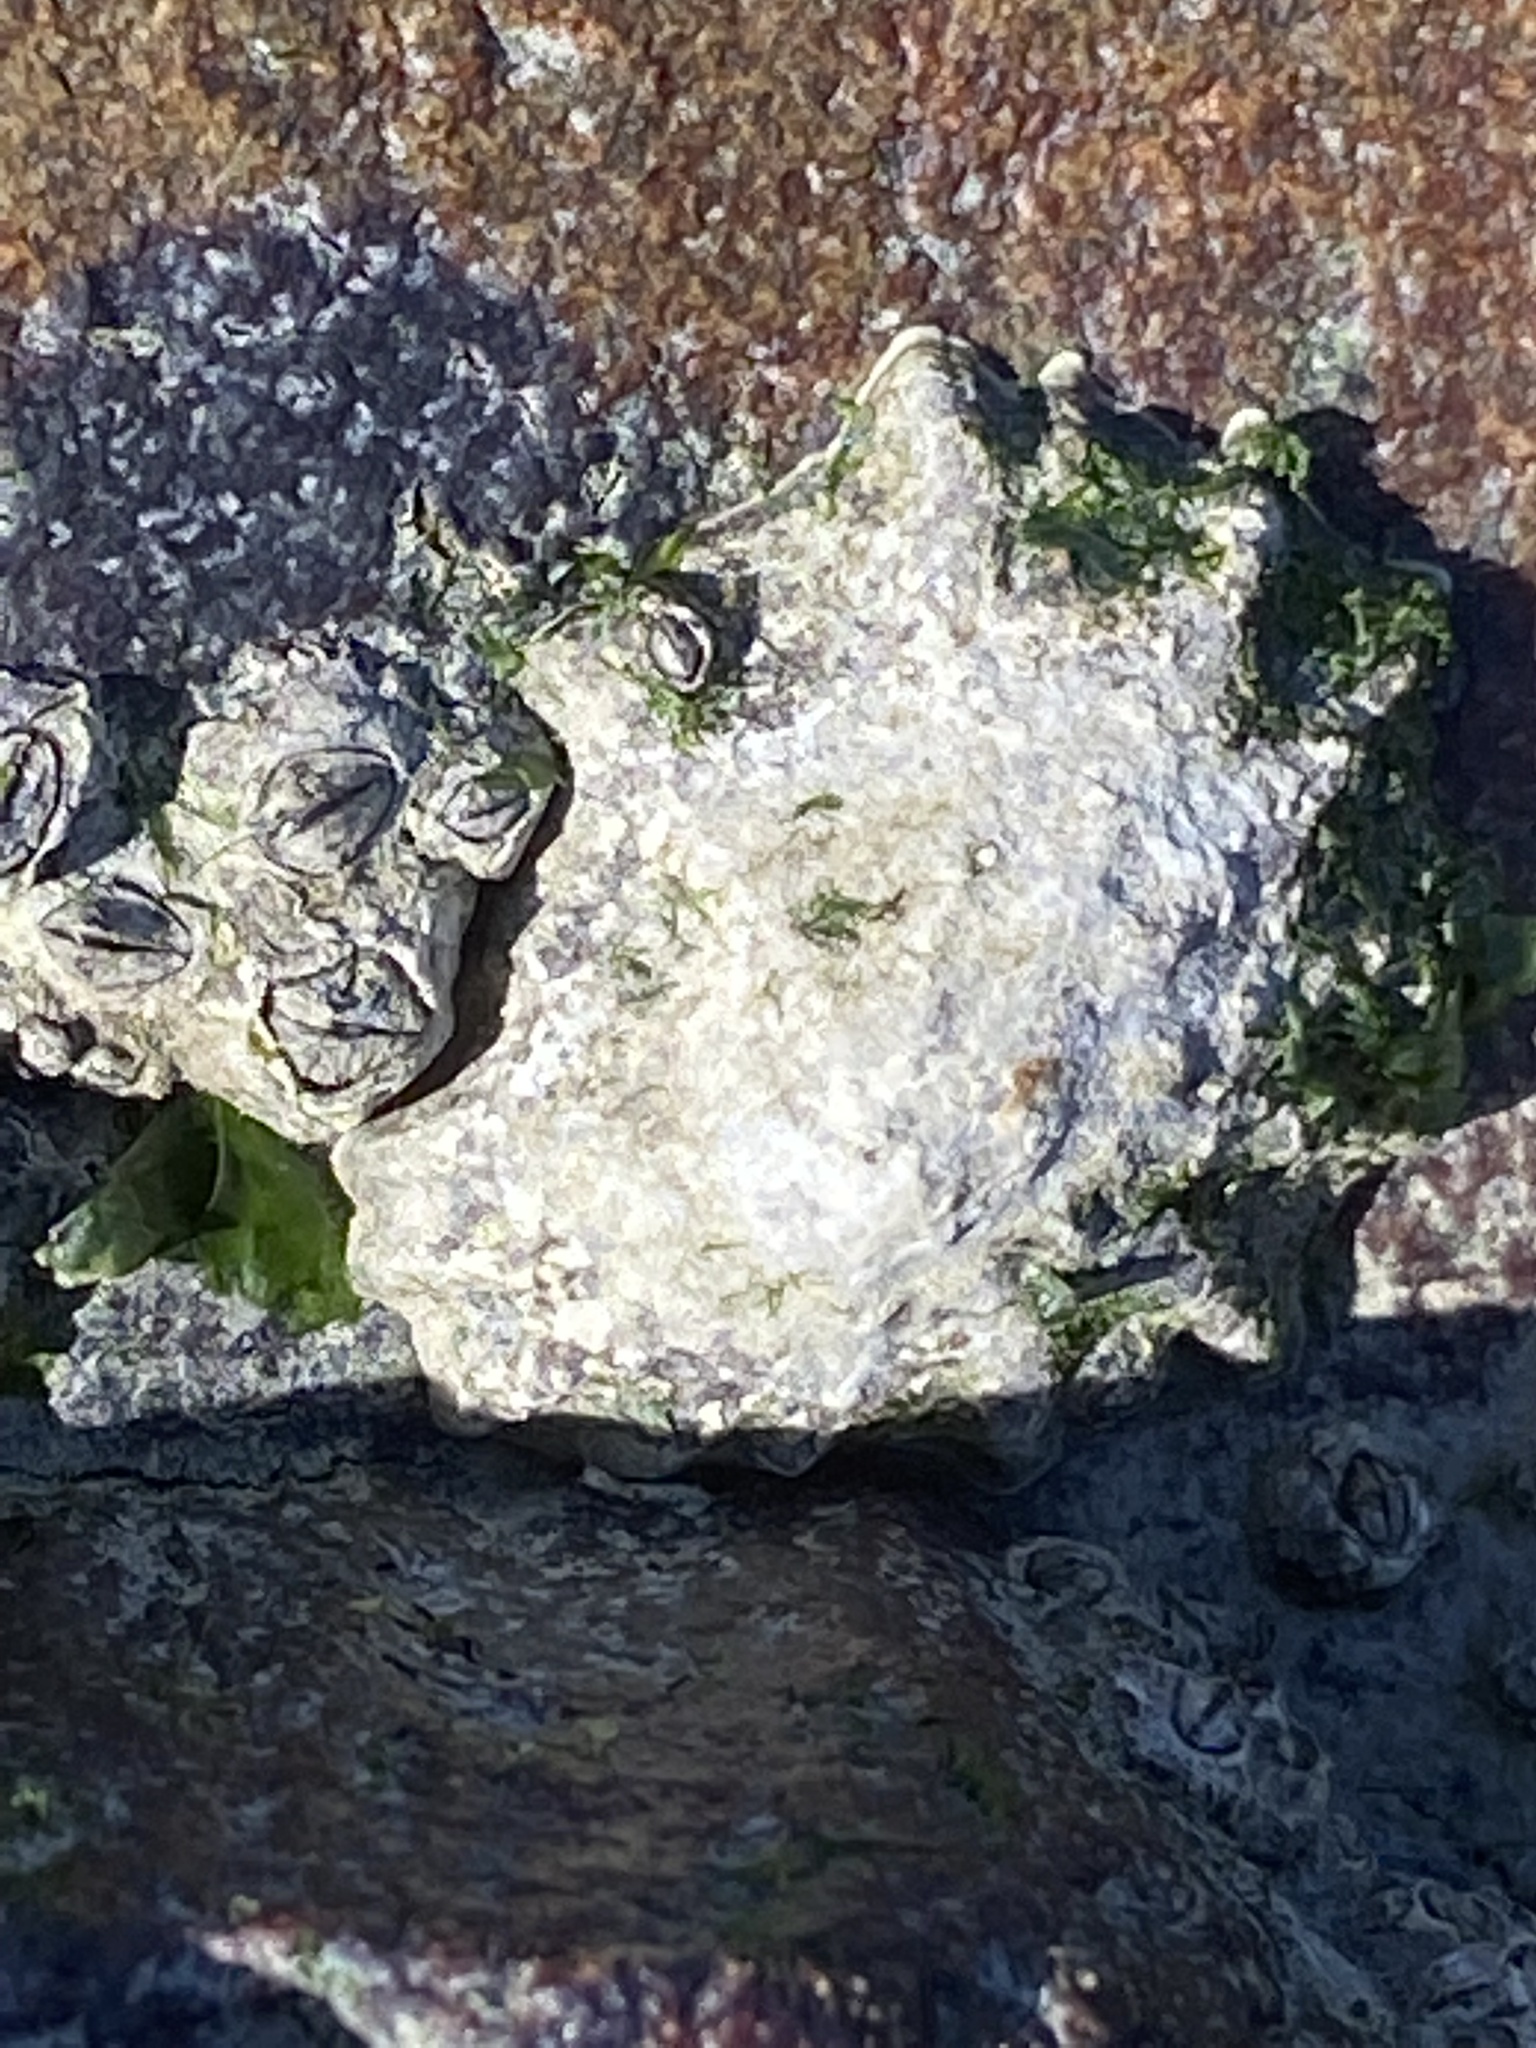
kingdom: Animalia
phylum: Mollusca
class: Gastropoda
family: Lottiidae
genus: Lottia
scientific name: Lottia scabra
